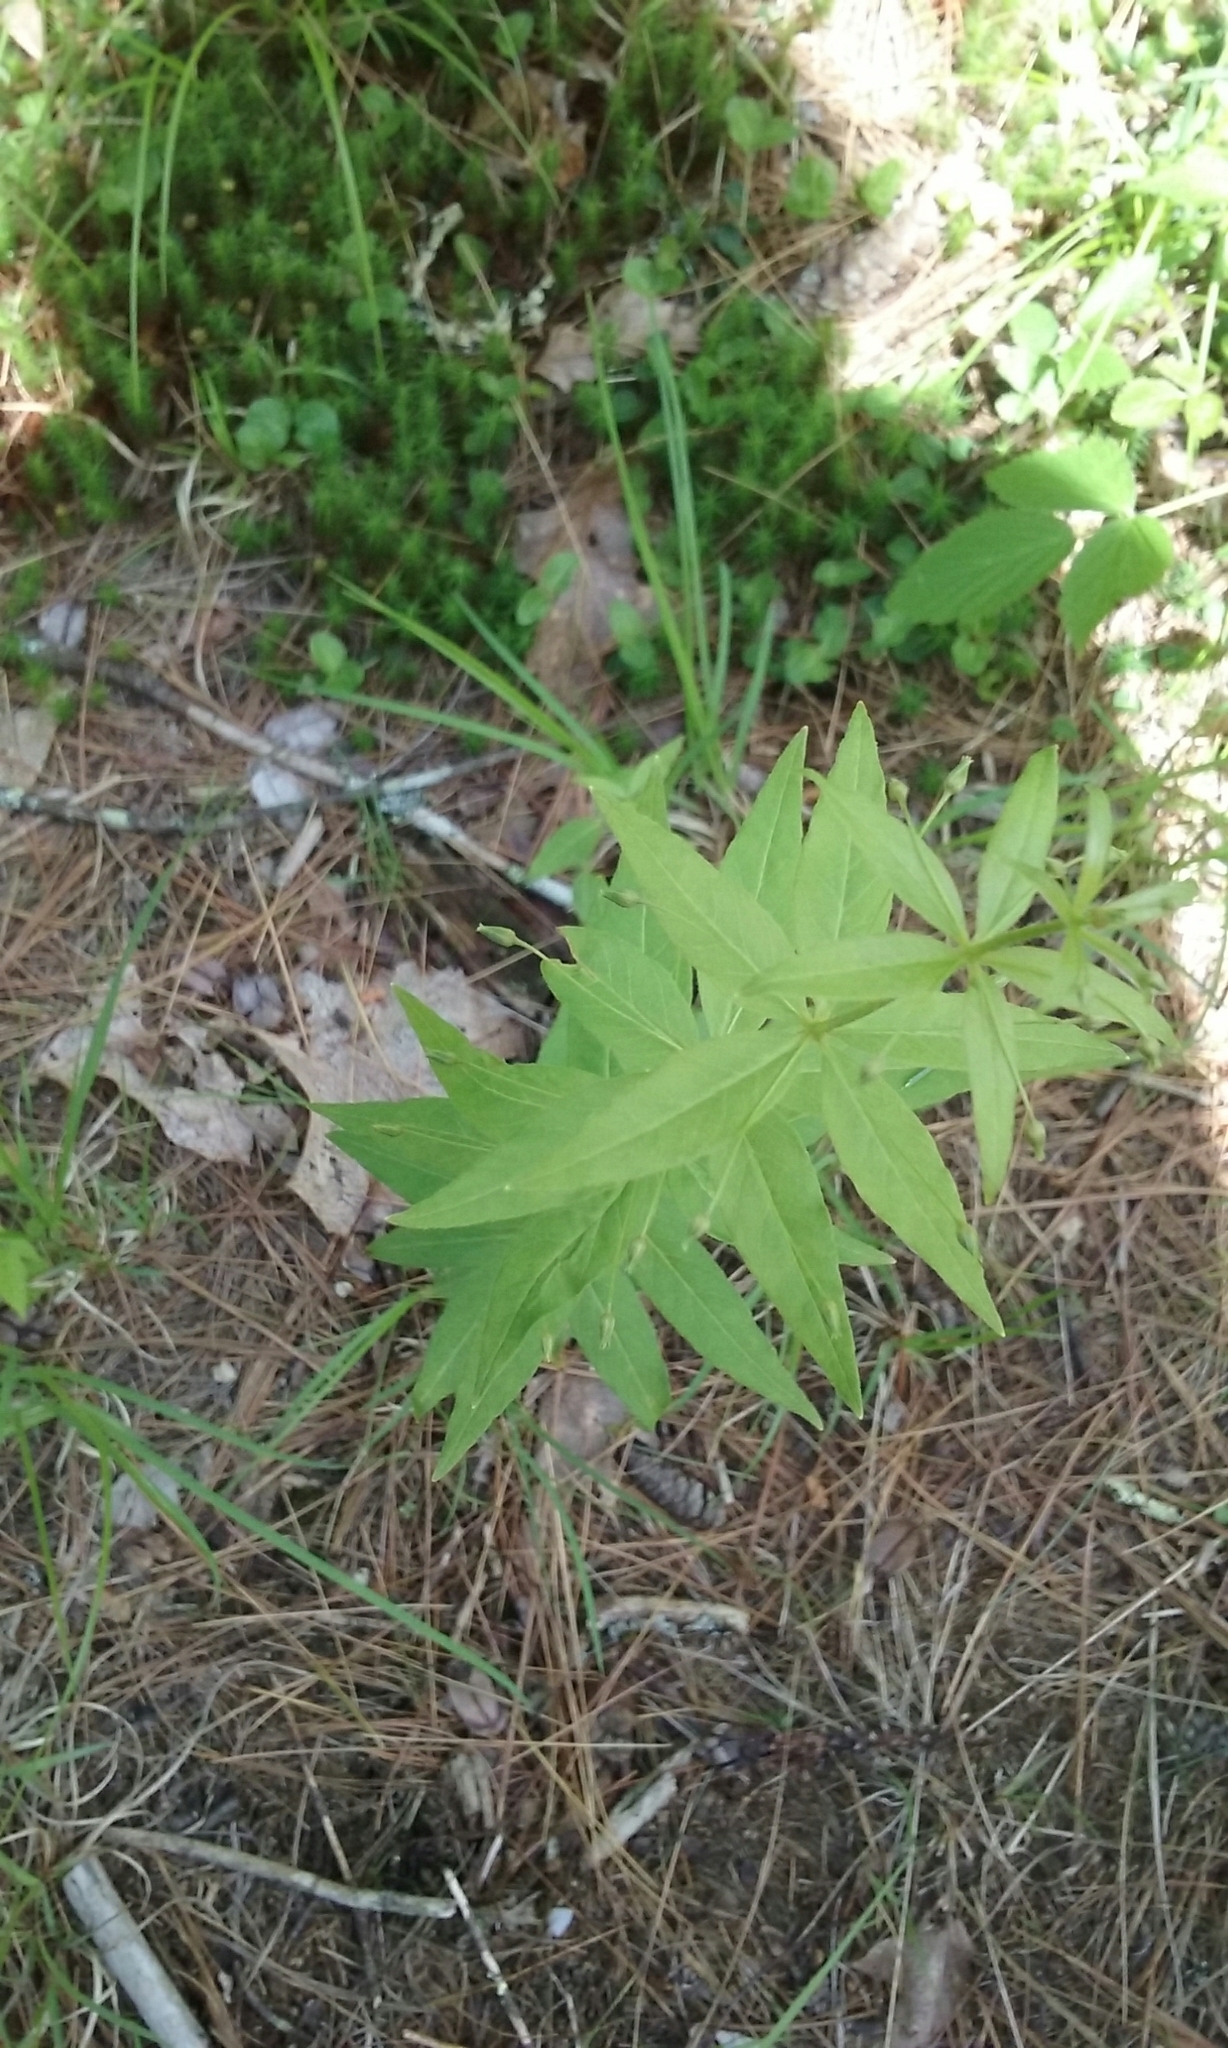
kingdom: Plantae
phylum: Tracheophyta
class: Magnoliopsida
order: Ericales
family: Primulaceae
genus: Lysimachia
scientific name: Lysimachia quadrifolia
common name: Whorled loosestrife
